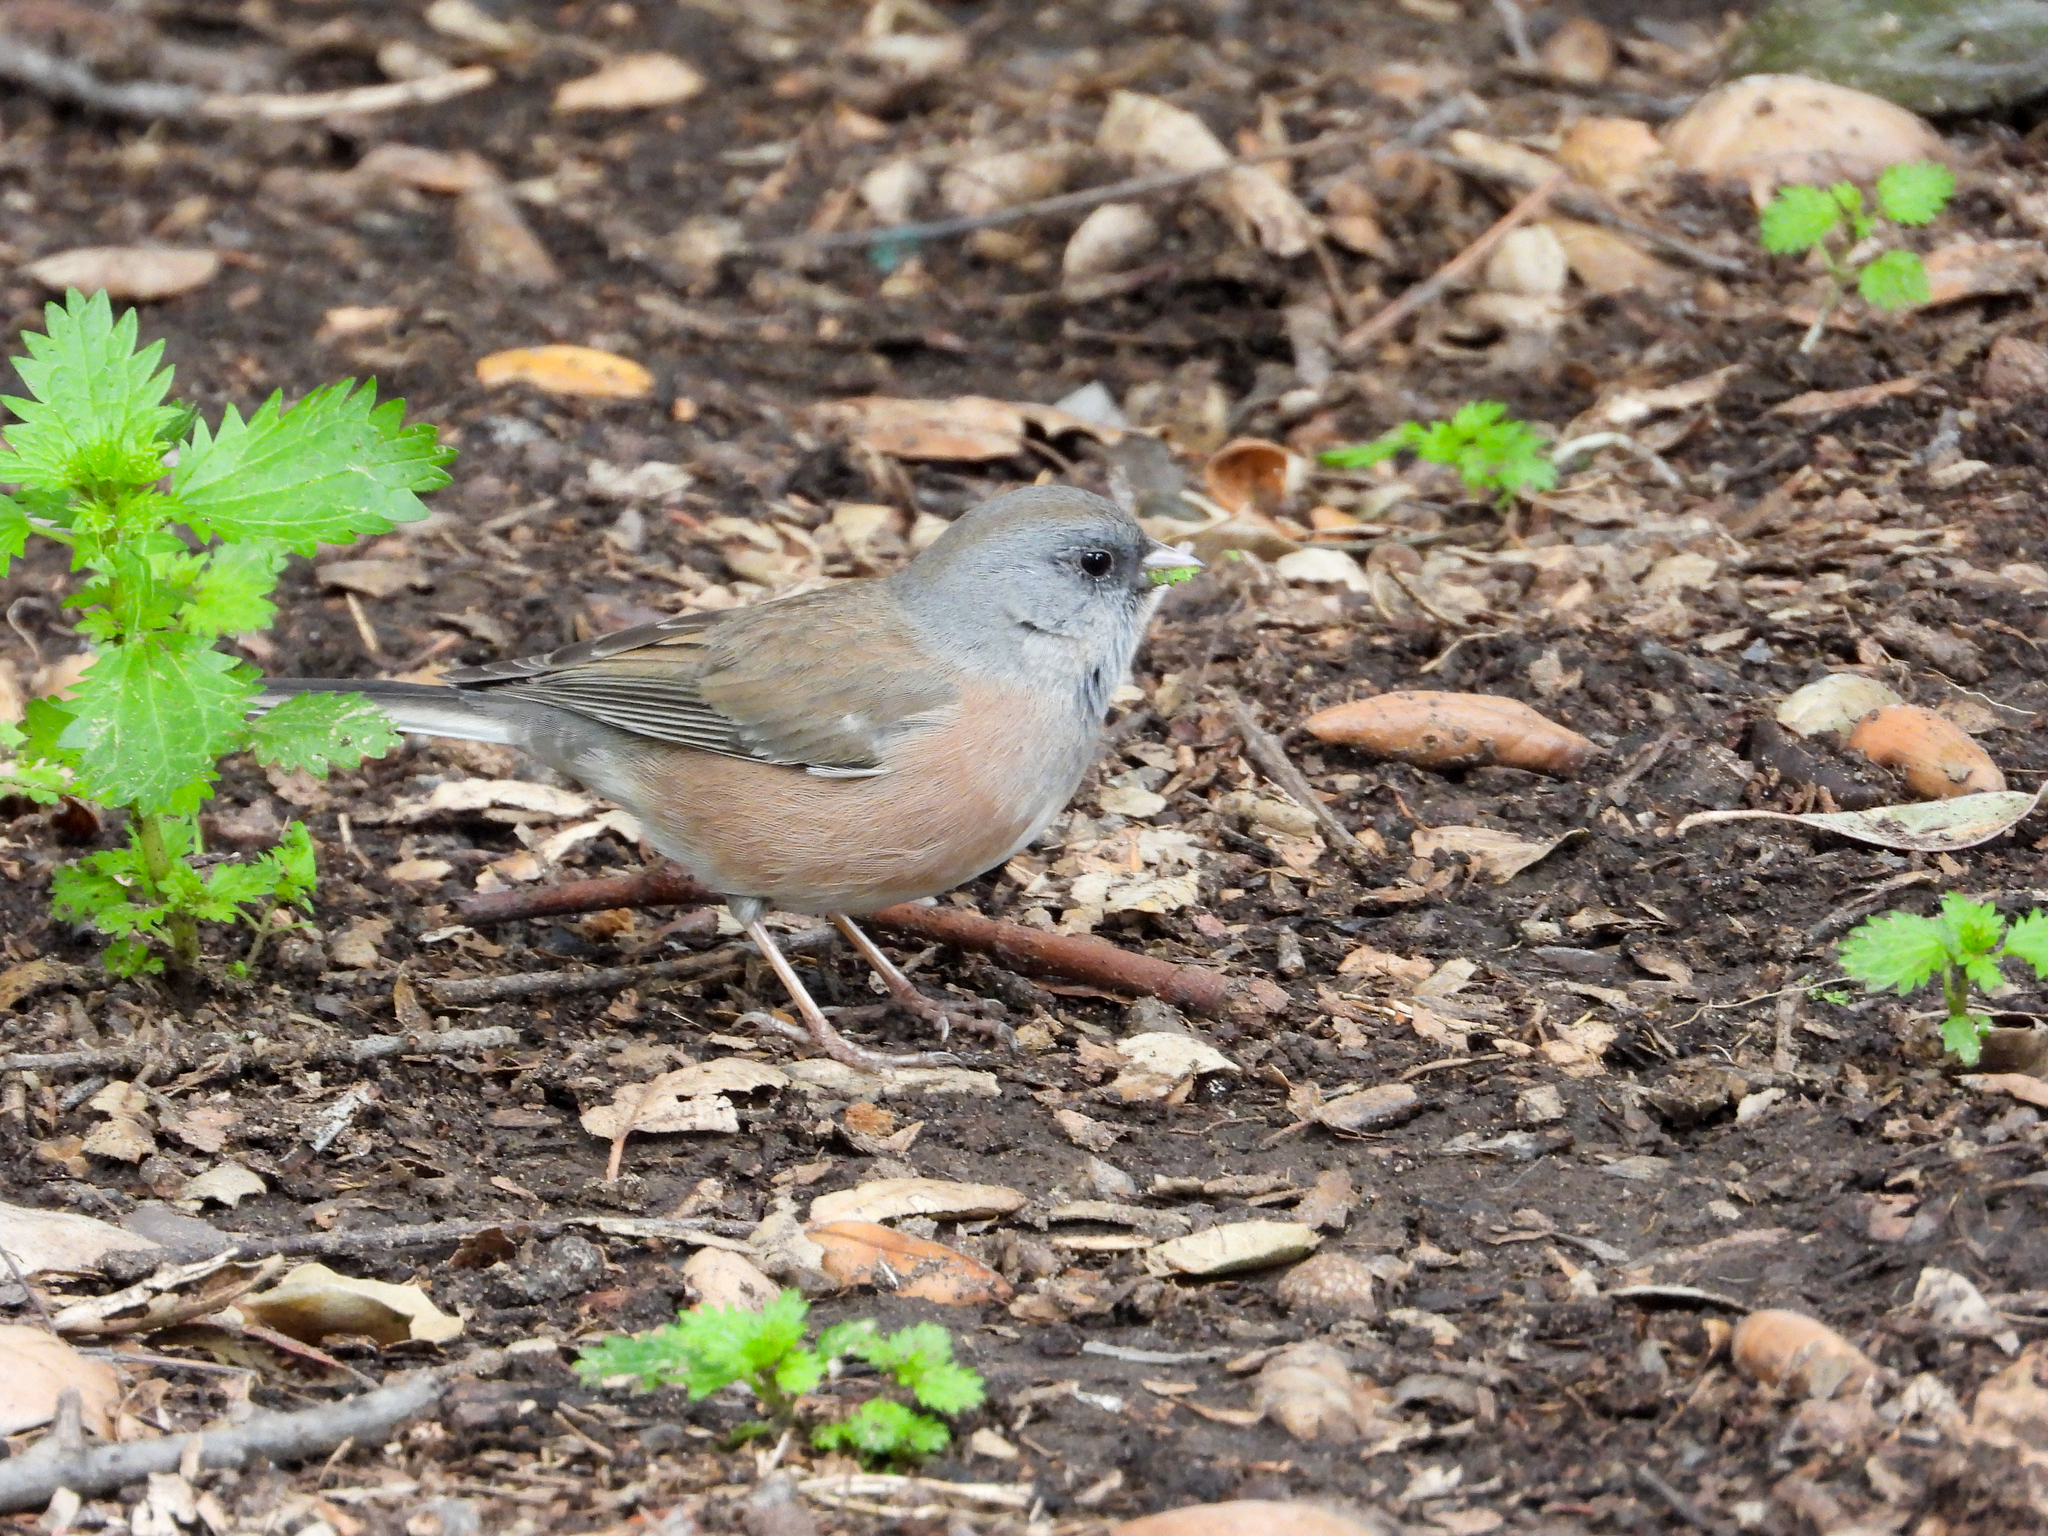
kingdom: Animalia
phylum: Chordata
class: Aves
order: Passeriformes
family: Passerellidae
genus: Junco
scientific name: Junco hyemalis
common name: Dark-eyed junco
